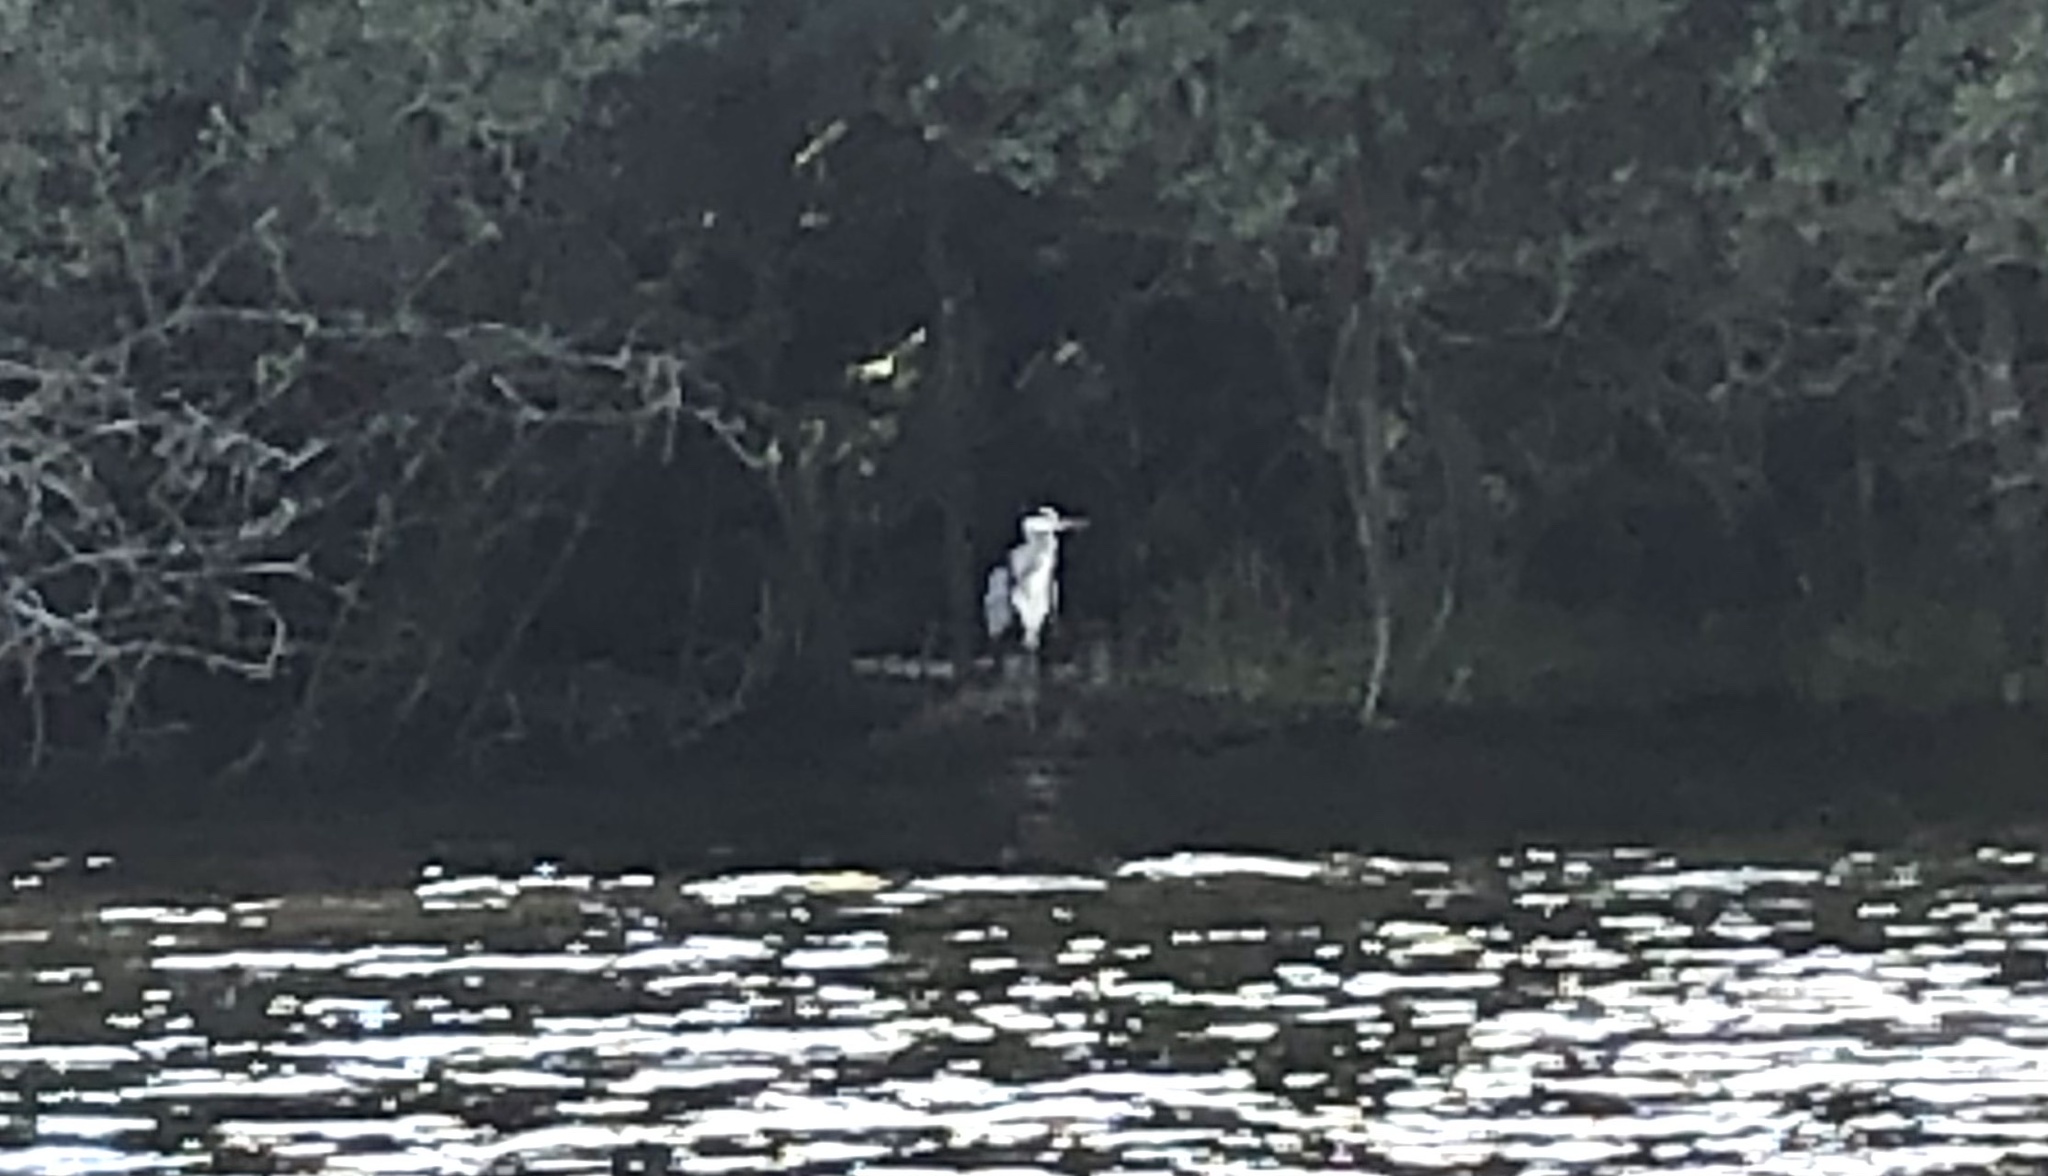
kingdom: Animalia
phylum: Chordata
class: Aves
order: Pelecaniformes
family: Ardeidae
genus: Ardea
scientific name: Ardea cinerea
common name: Grey heron
